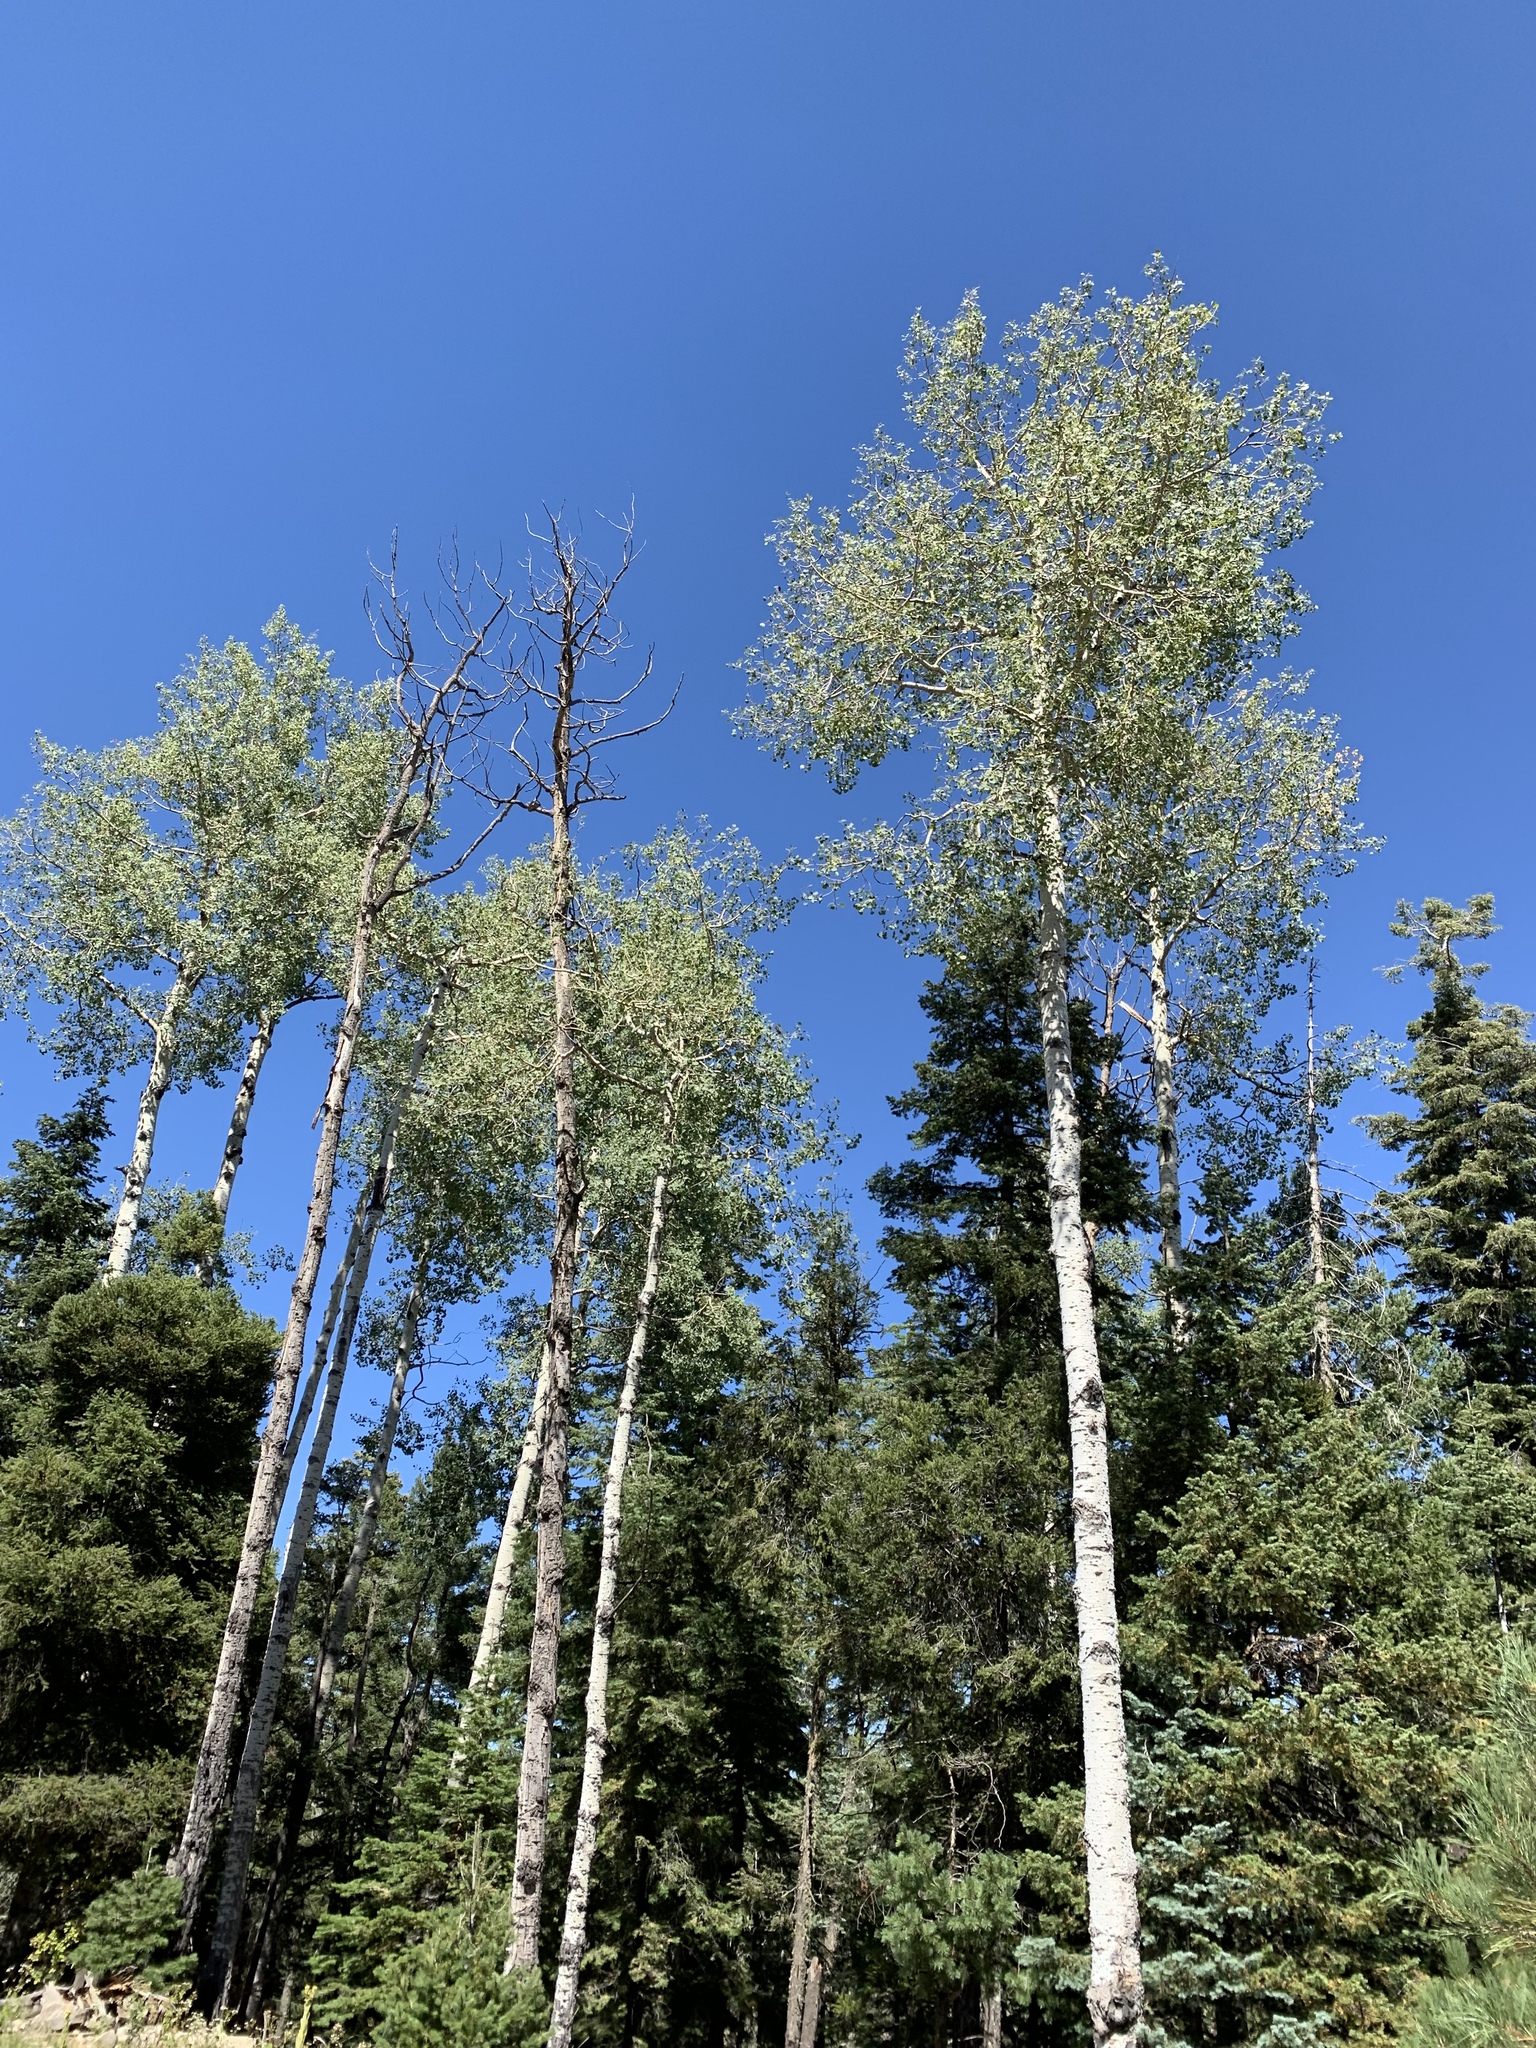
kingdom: Plantae
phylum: Tracheophyta
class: Magnoliopsida
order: Malpighiales
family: Salicaceae
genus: Populus
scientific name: Populus tremuloides
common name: Quaking aspen
